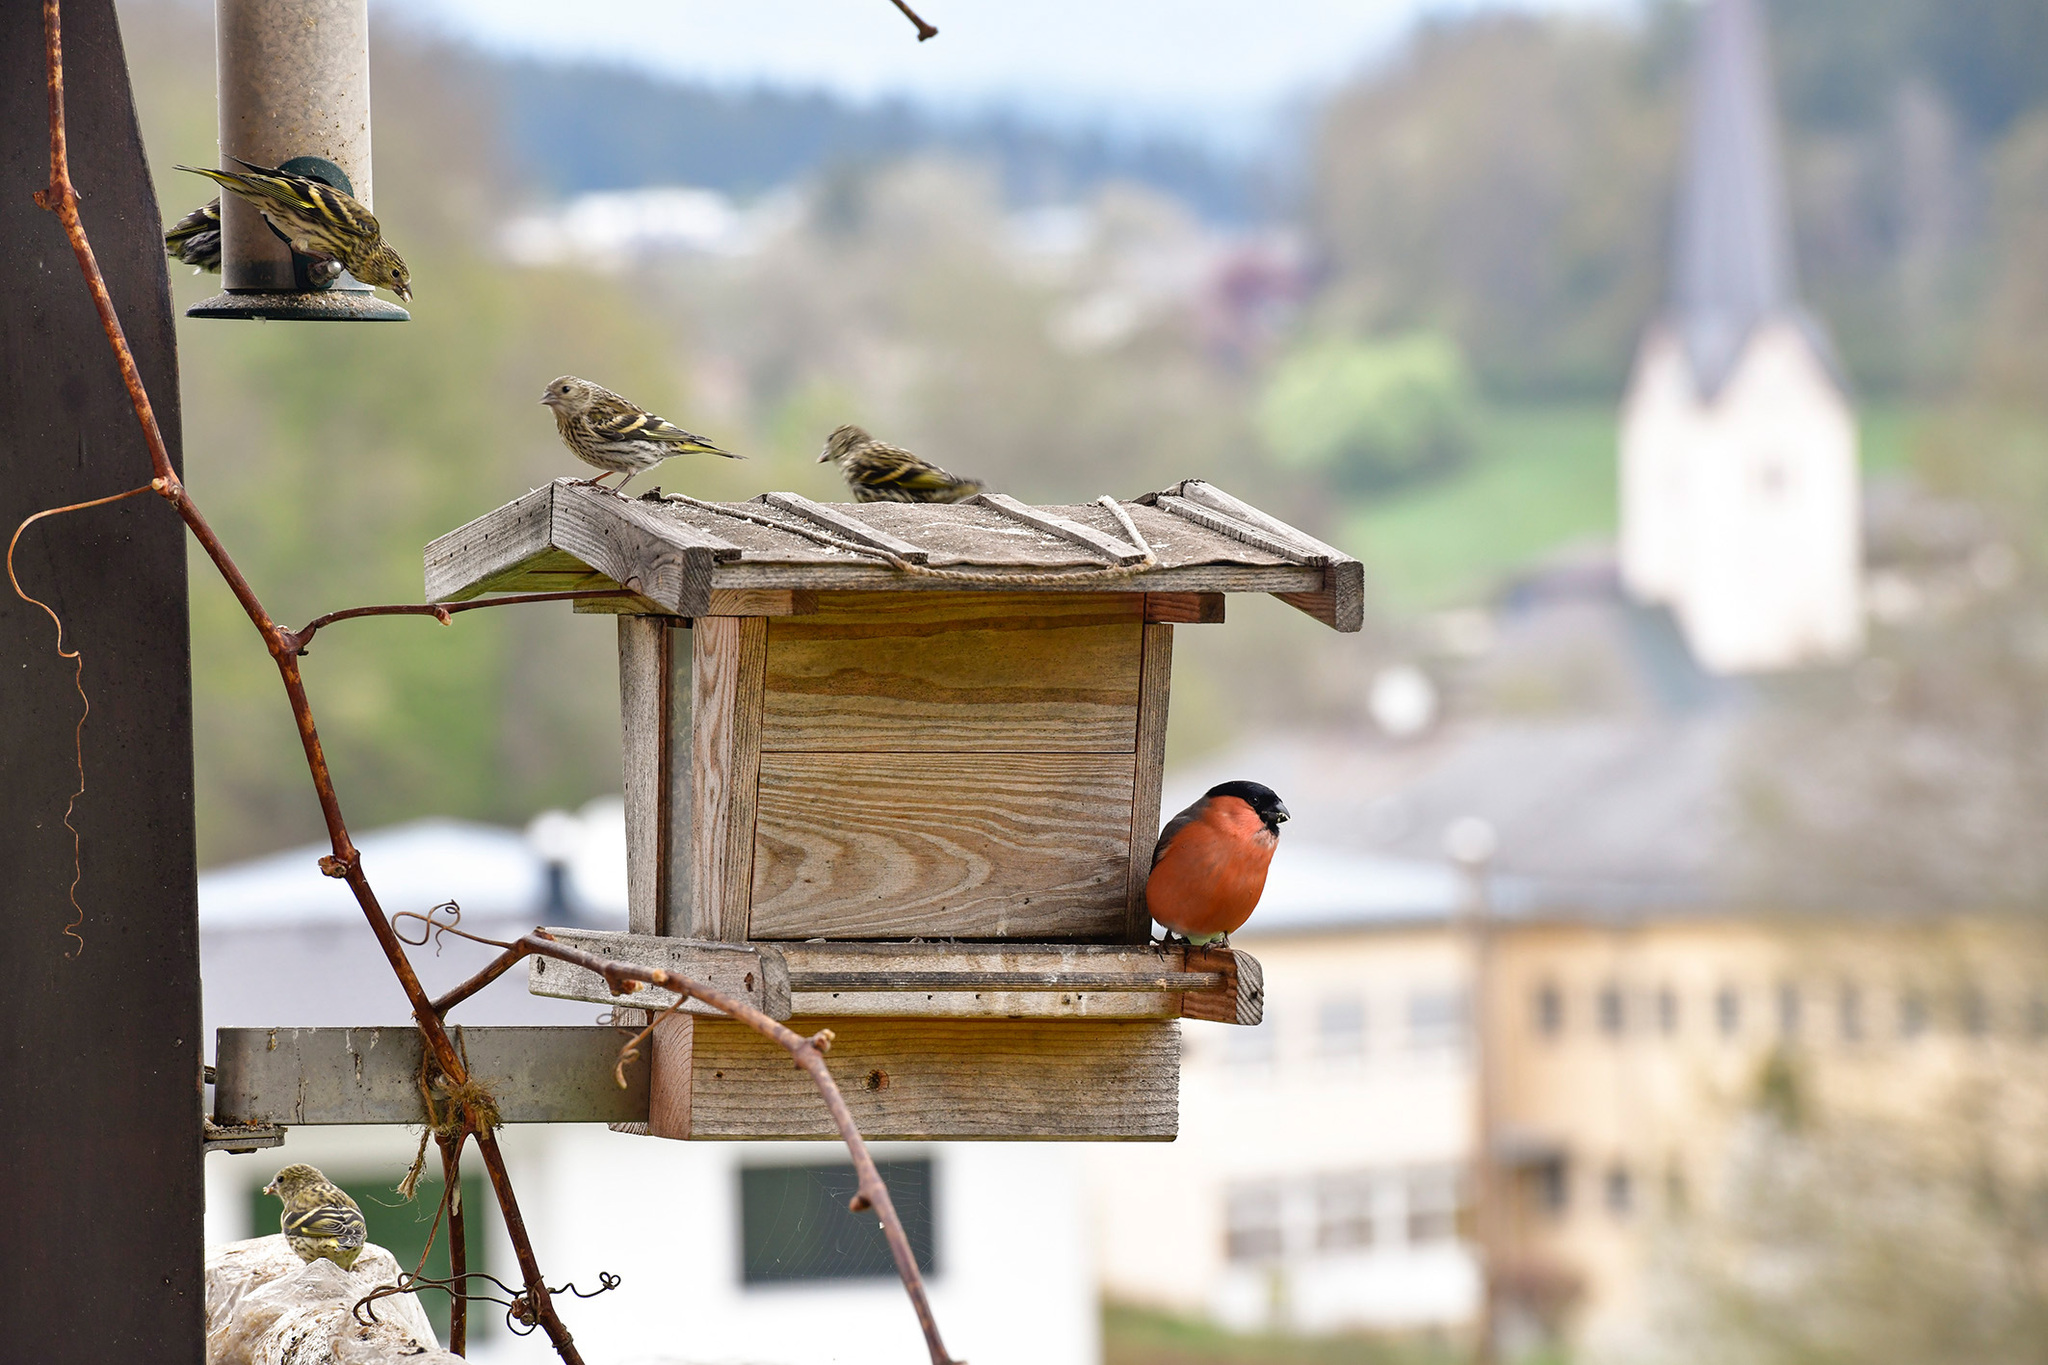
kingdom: Animalia
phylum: Chordata
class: Aves
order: Passeriformes
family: Fringillidae
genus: Spinus
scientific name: Spinus spinus
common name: Eurasian siskin
